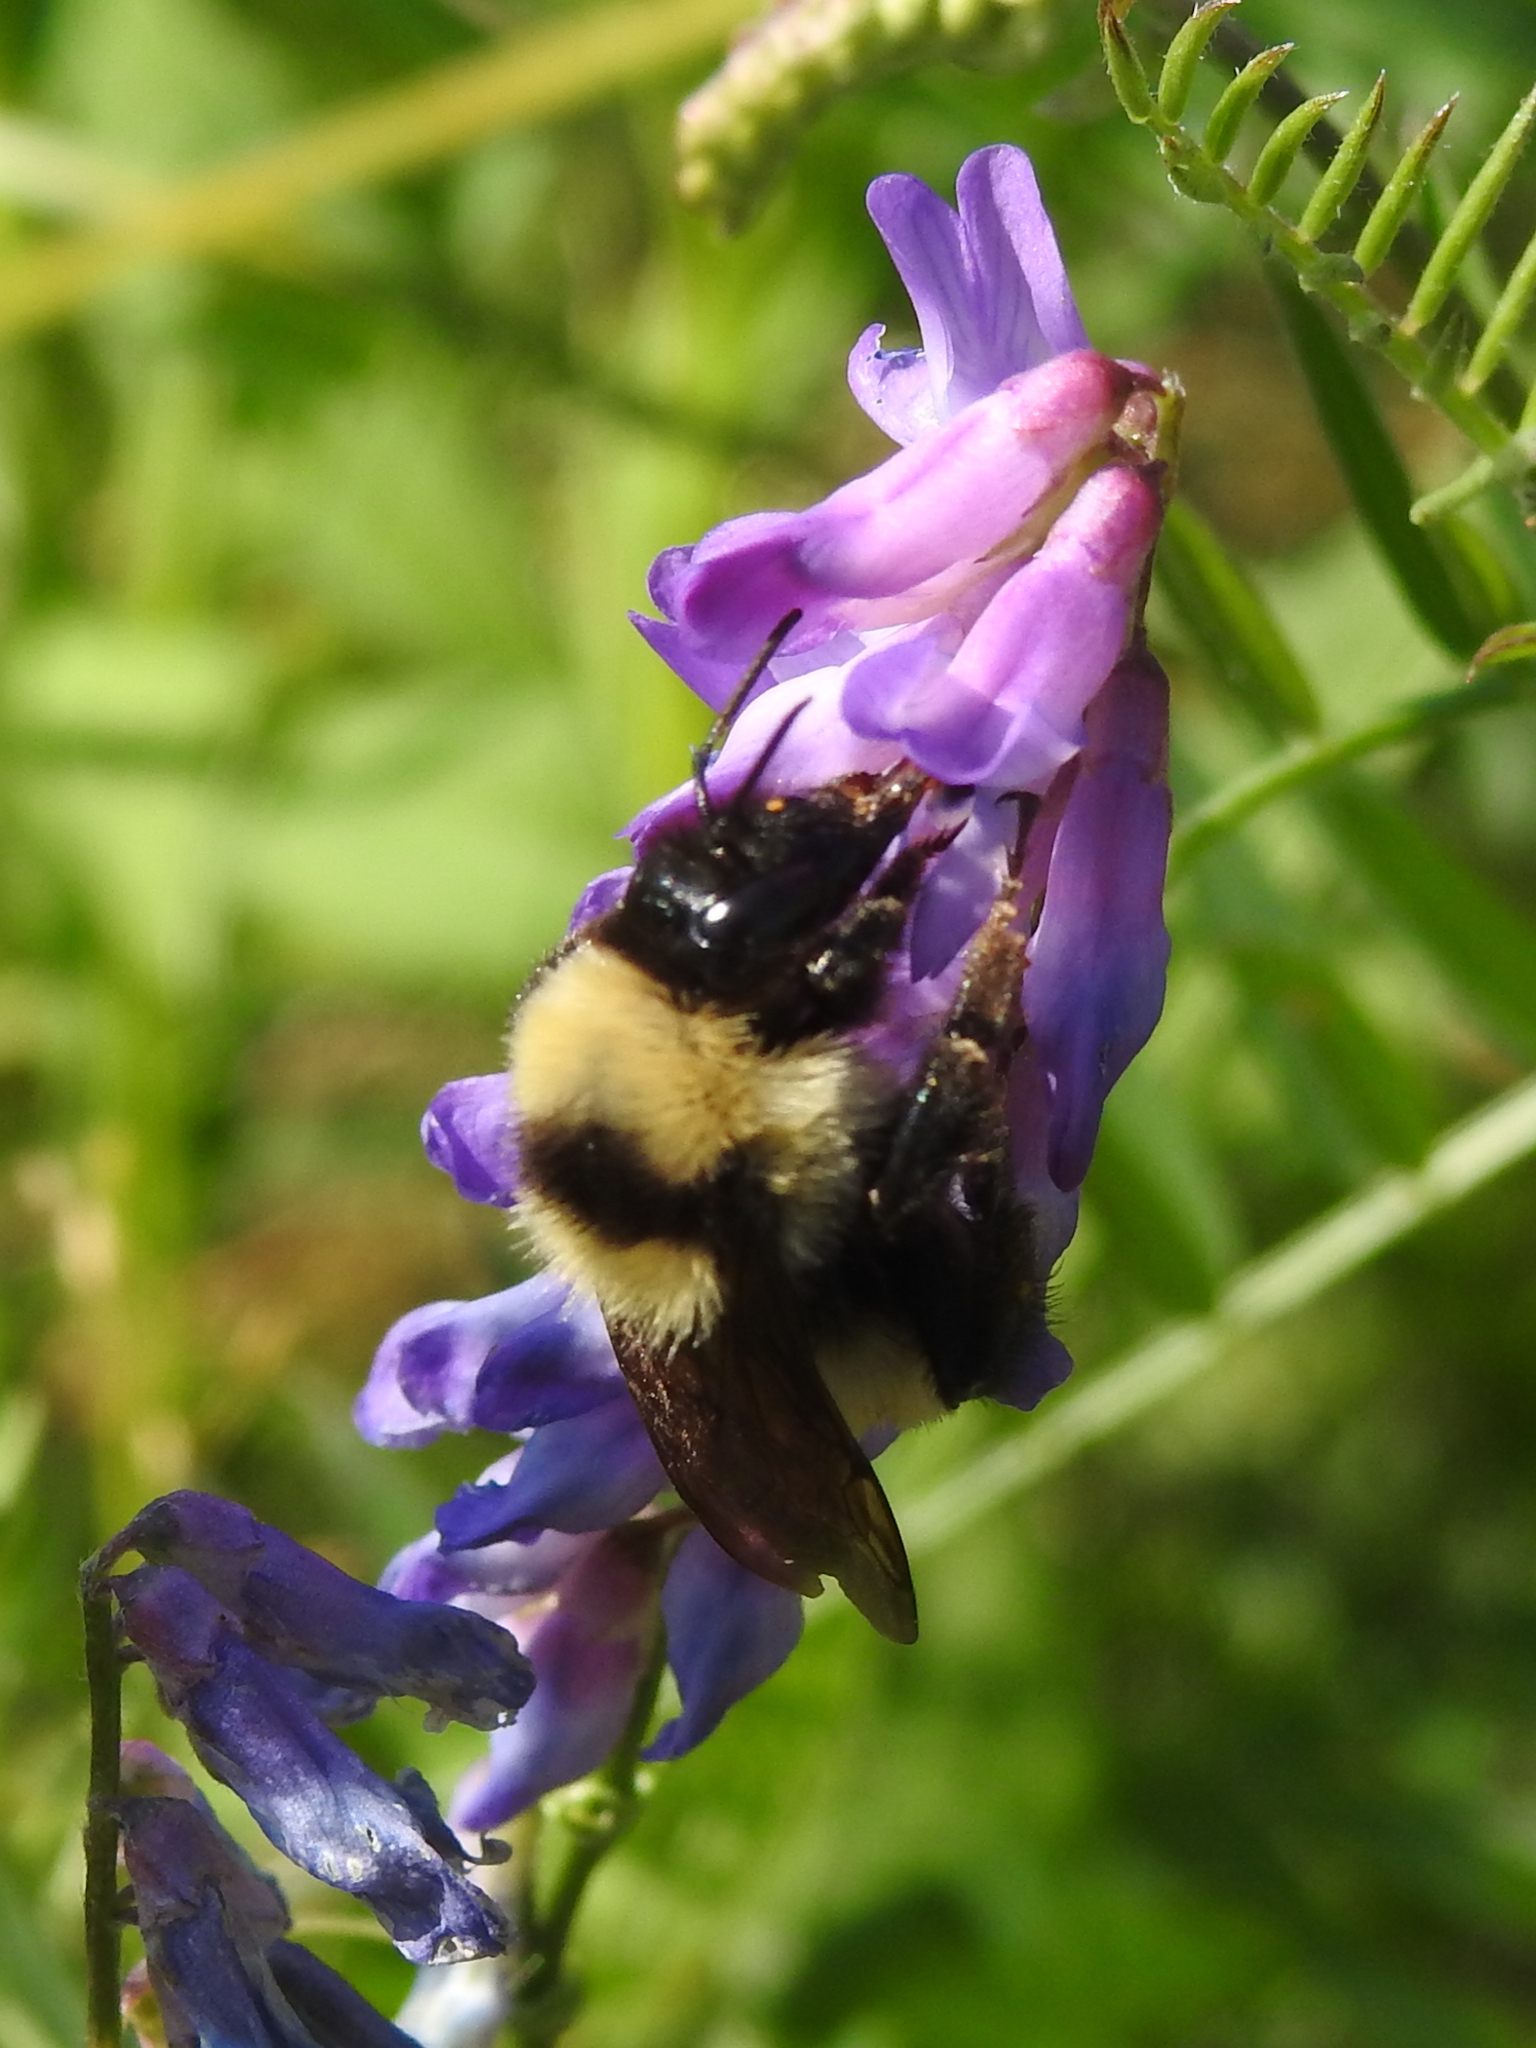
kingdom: Animalia
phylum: Arthropoda
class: Insecta
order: Hymenoptera
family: Apidae
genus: Bombus
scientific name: Bombus fervidus
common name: Yellow bumble bee
